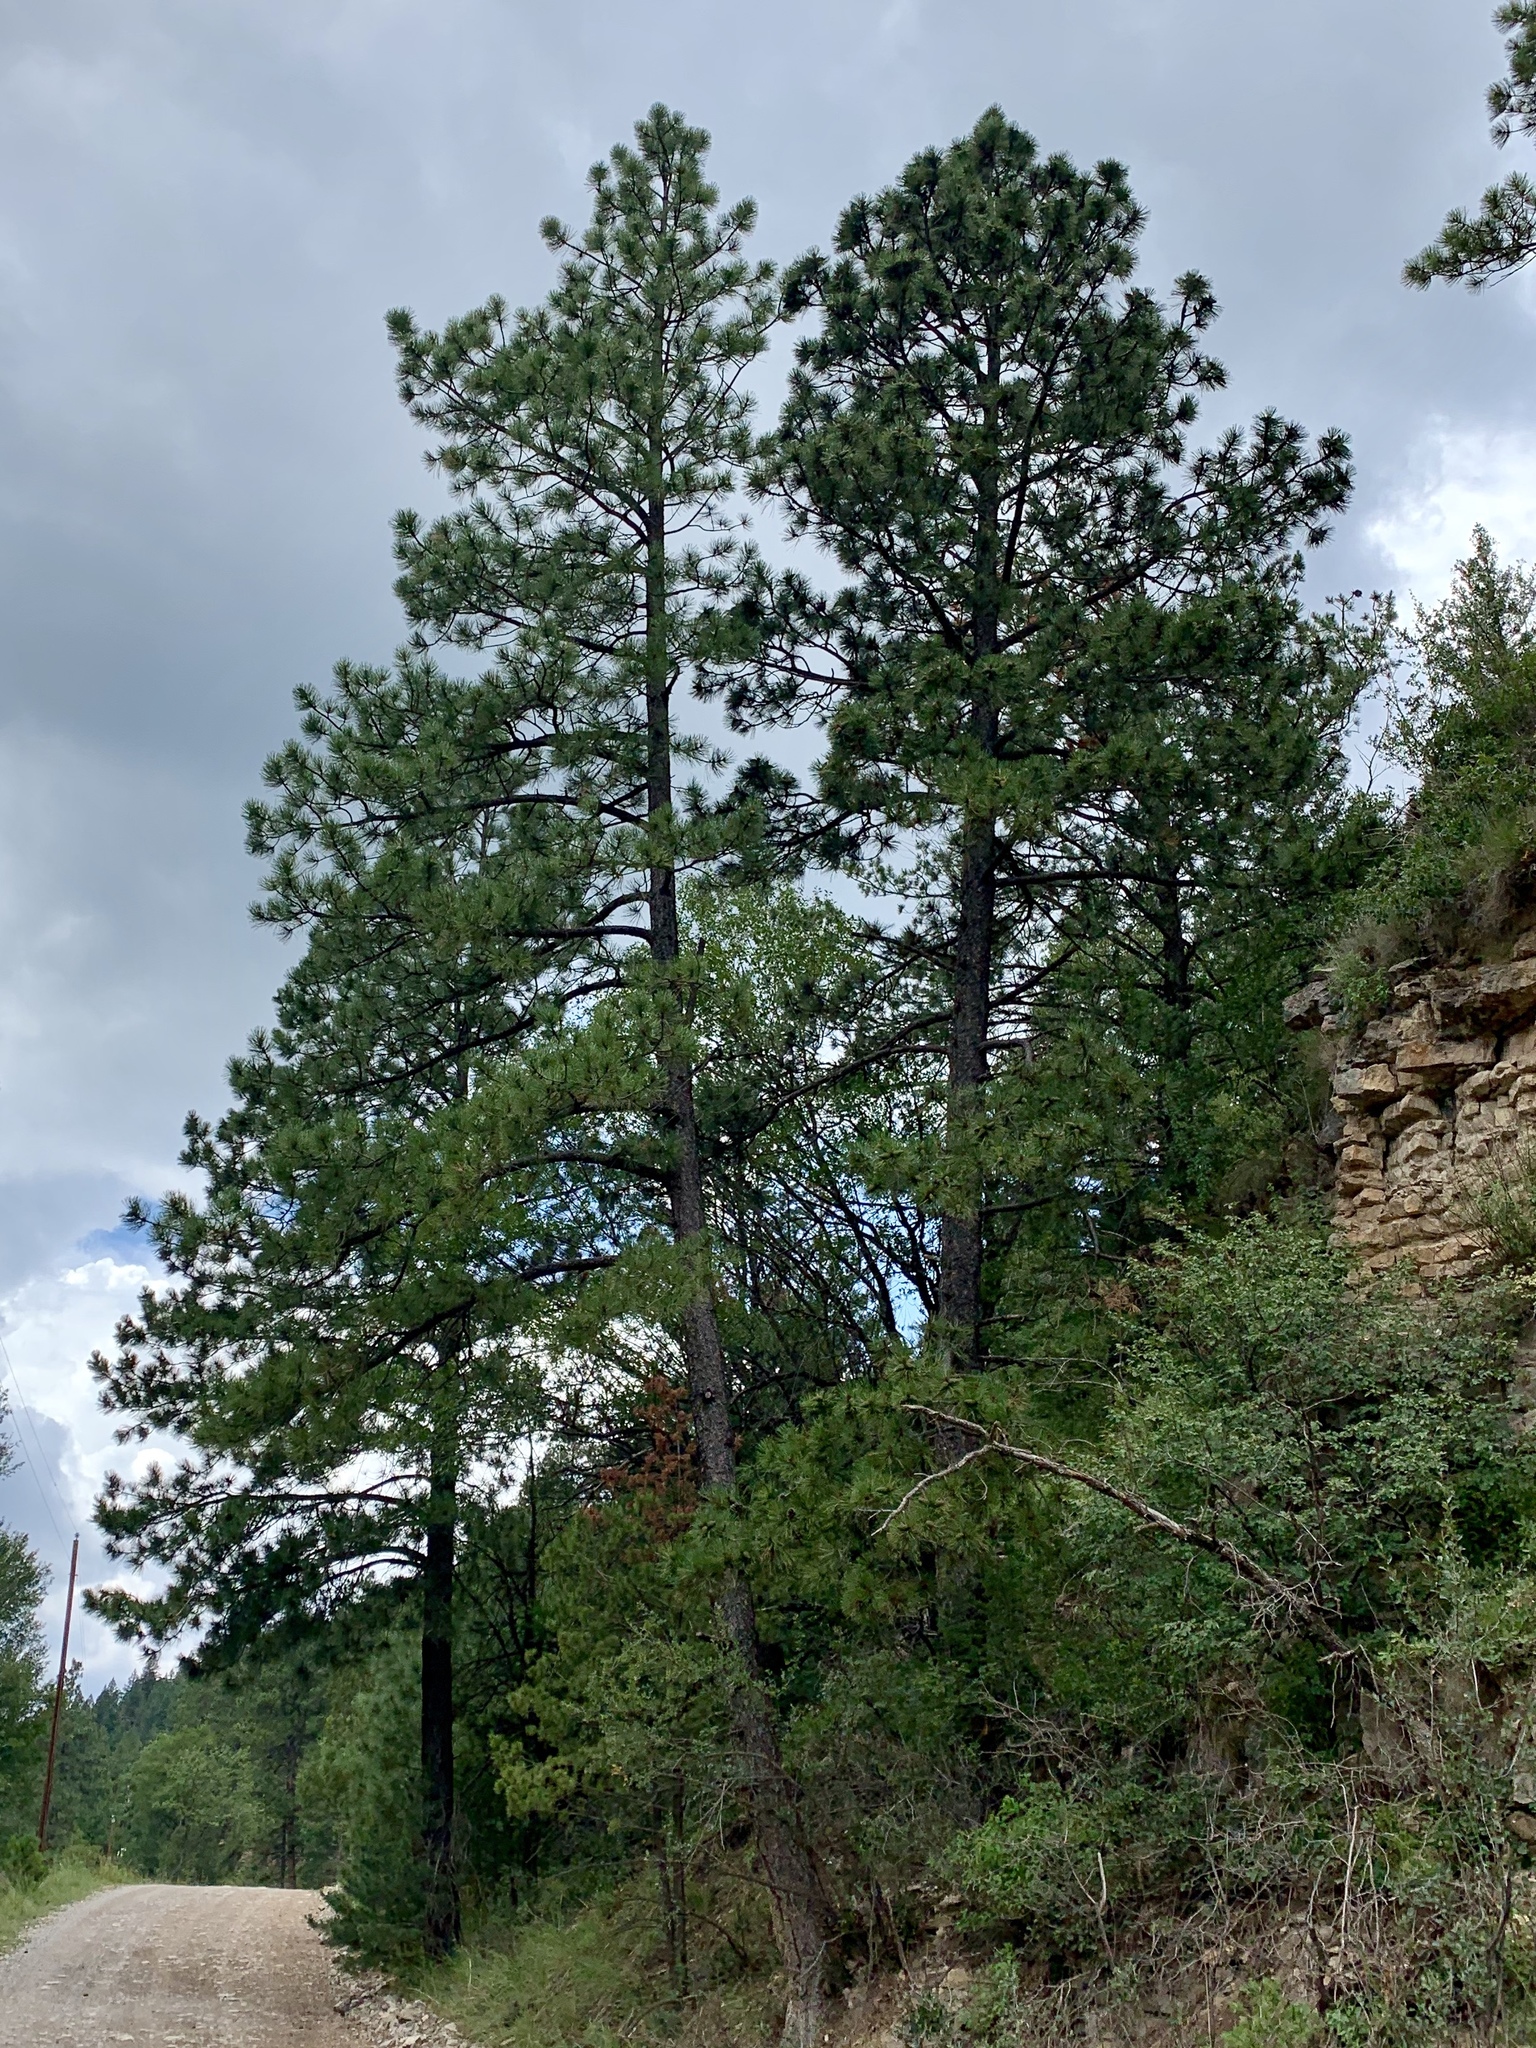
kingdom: Plantae
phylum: Tracheophyta
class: Pinopsida
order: Pinales
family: Pinaceae
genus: Pinus
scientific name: Pinus ponderosa
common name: Western yellow-pine
